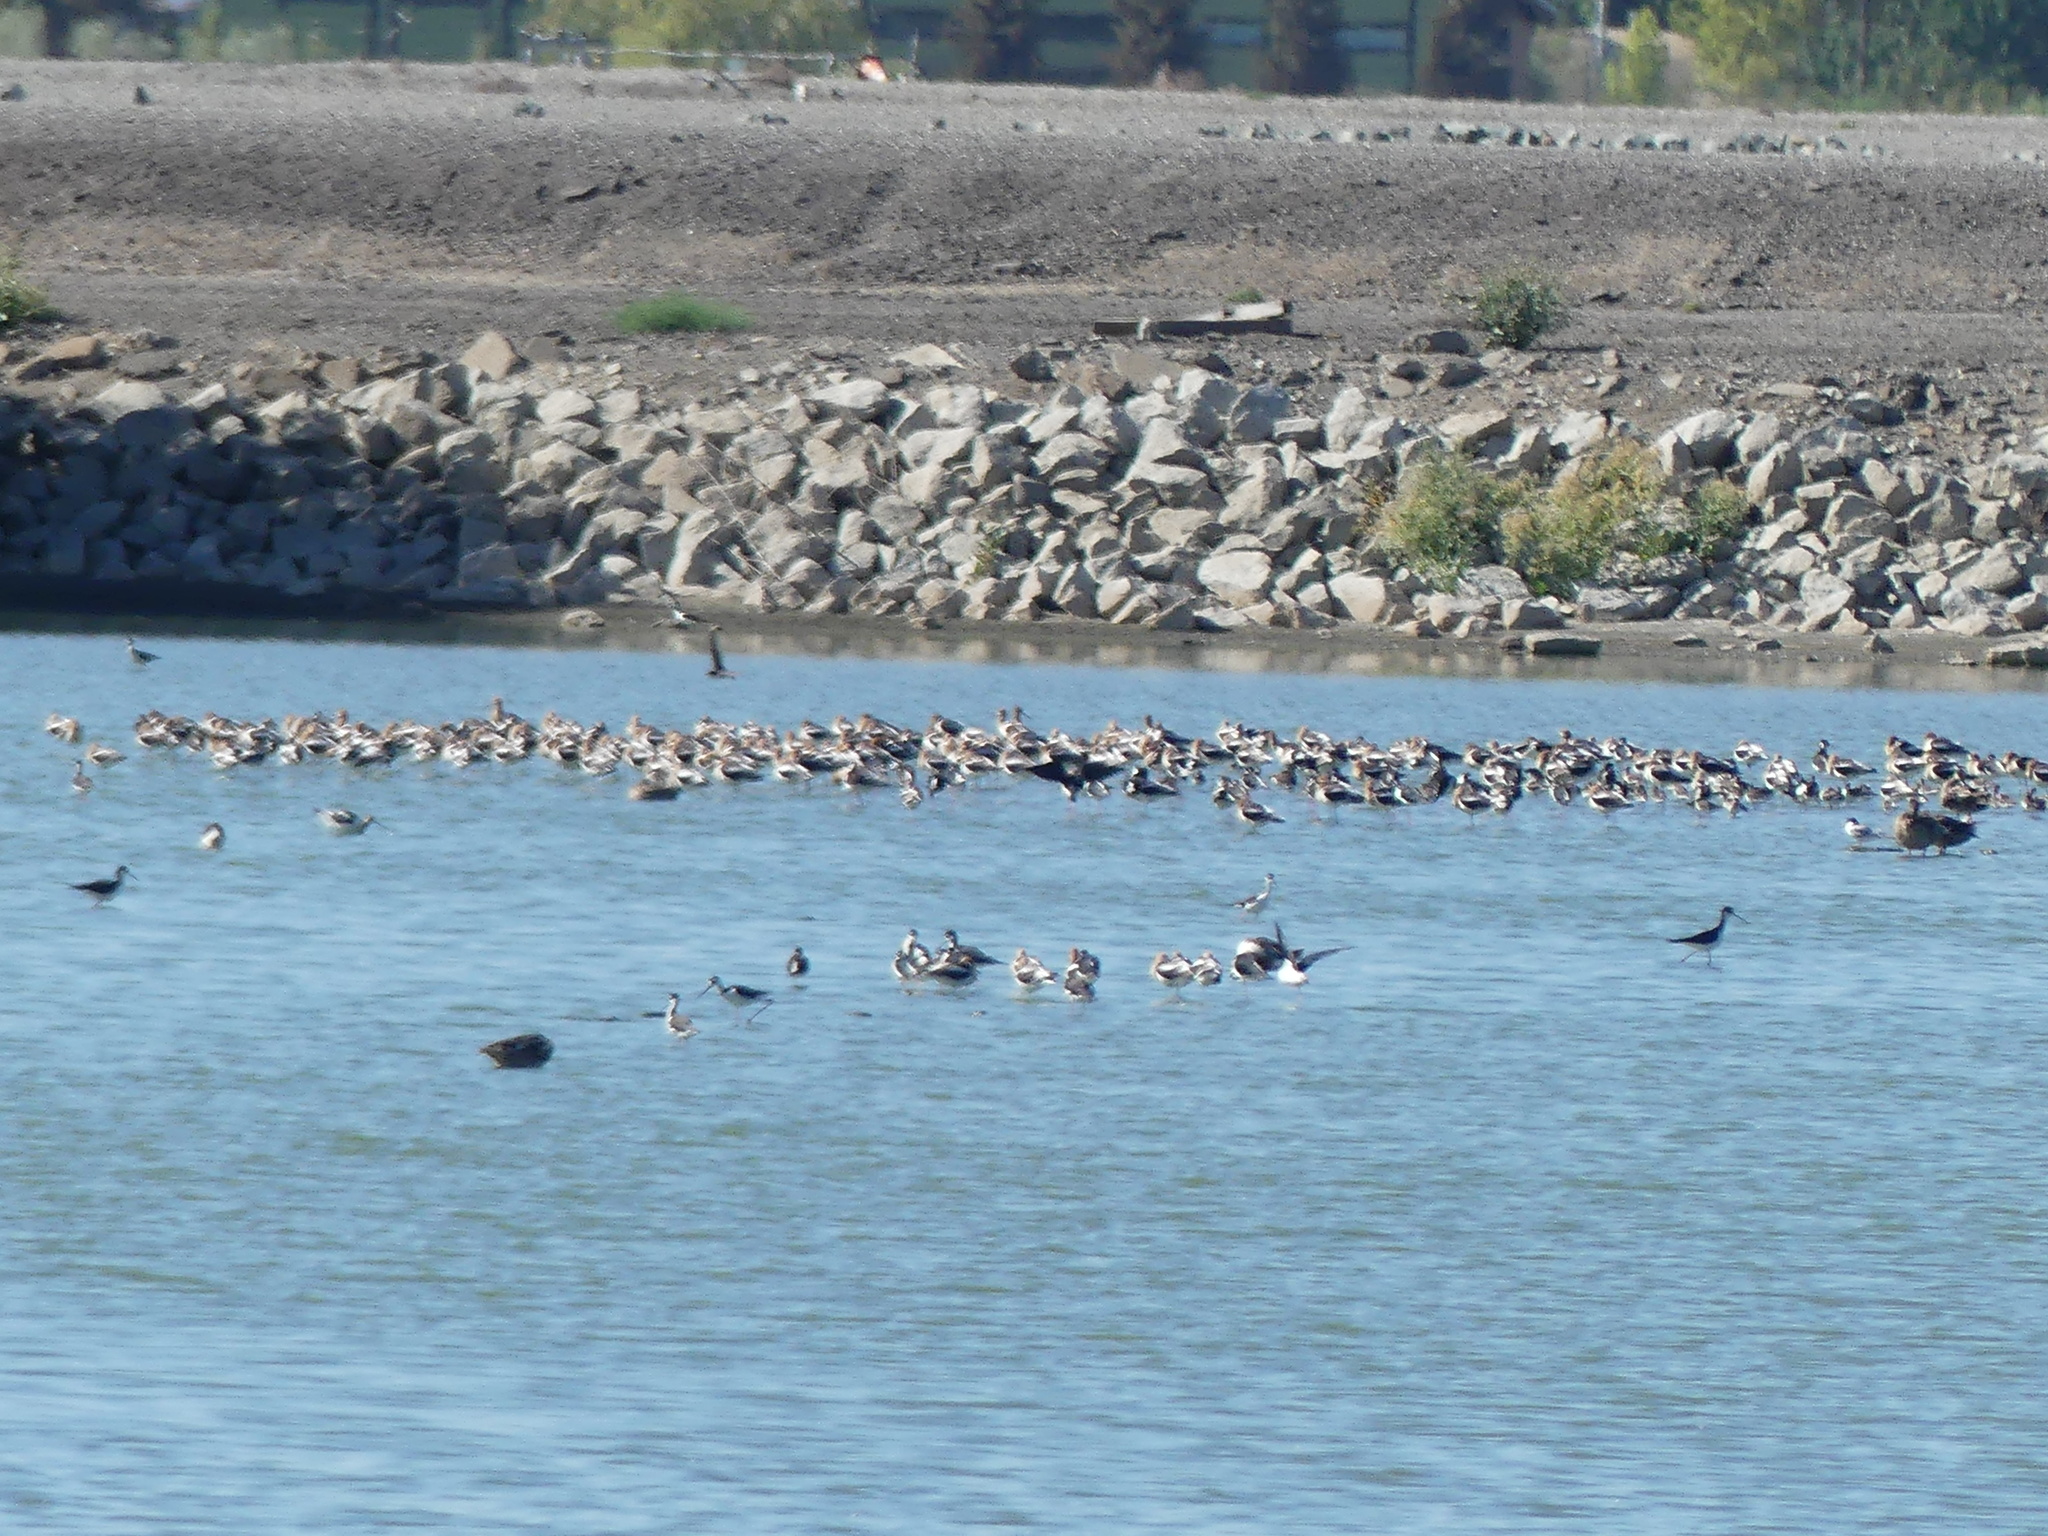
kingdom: Animalia
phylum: Chordata
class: Aves
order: Charadriiformes
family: Recurvirostridae
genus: Recurvirostra
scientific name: Recurvirostra americana
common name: American avocet
